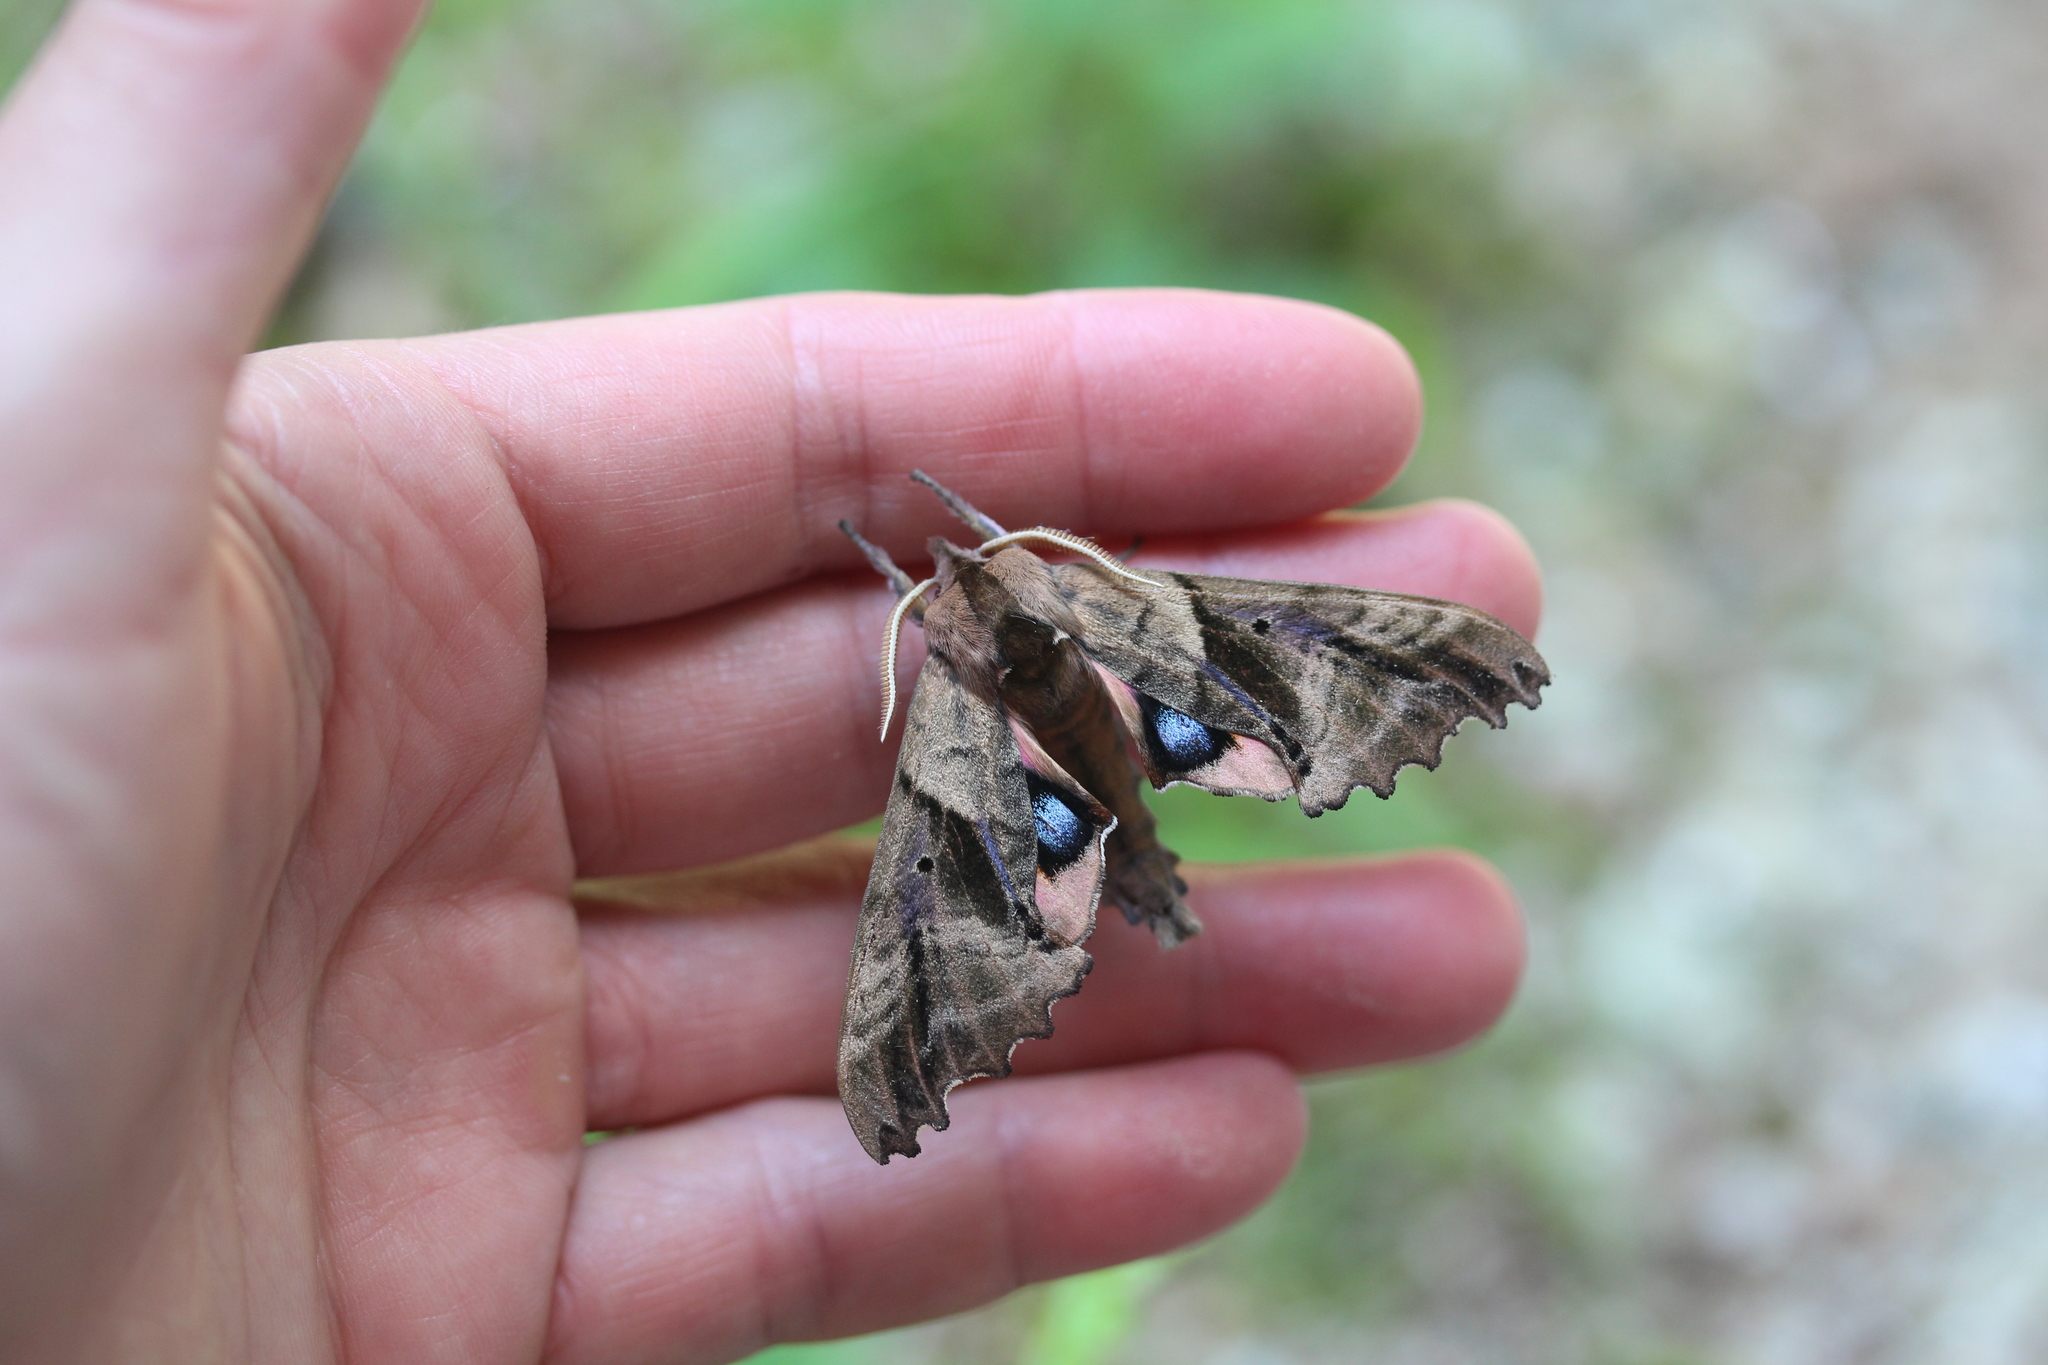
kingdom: Animalia
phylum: Arthropoda
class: Insecta
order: Lepidoptera
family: Sphingidae
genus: Paonias
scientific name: Paonias excaecata
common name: Blind-eyed sphinx
